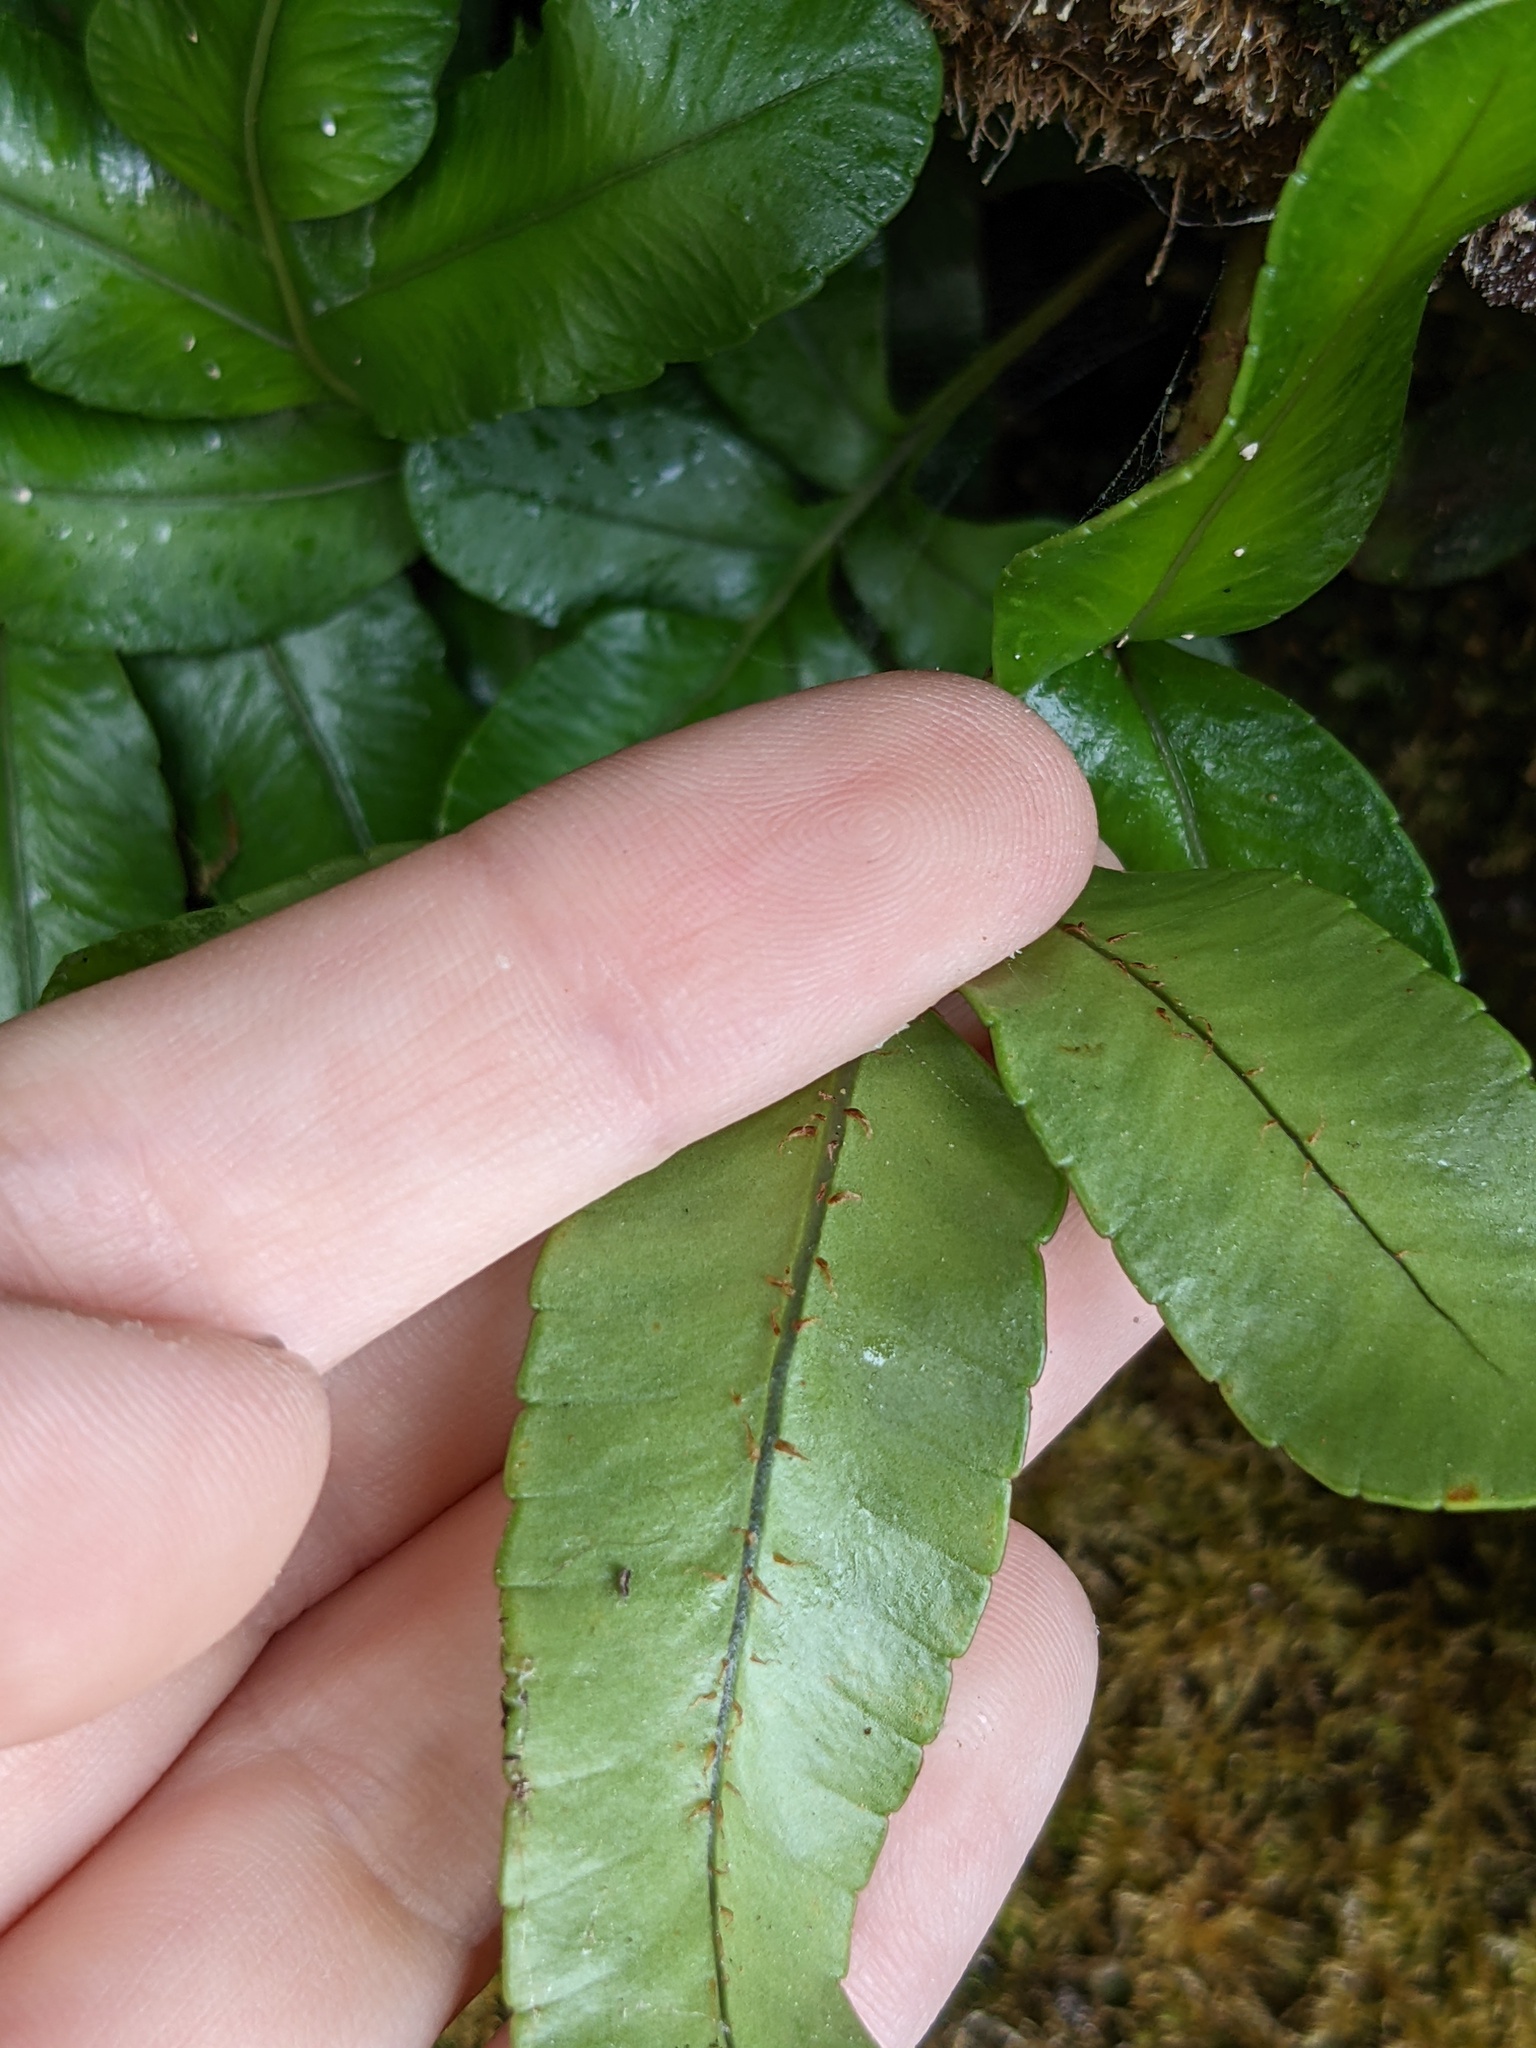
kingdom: Plantae
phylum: Tracheophyta
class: Polypodiopsida
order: Polypodiales
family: Polypodiaceae
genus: Polypodium
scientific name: Polypodium scouleri
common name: Scouler's polypody
